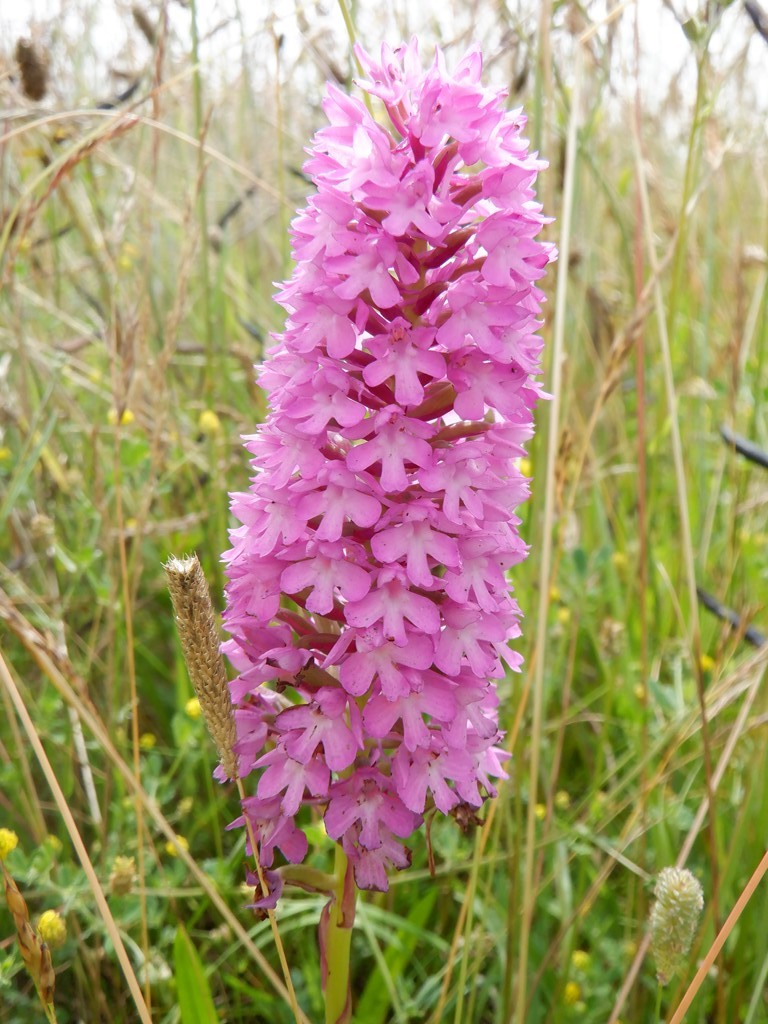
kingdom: Plantae
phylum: Tracheophyta
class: Liliopsida
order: Asparagales
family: Orchidaceae
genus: Anacamptis
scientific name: Anacamptis pyramidalis
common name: Pyramidal orchid
